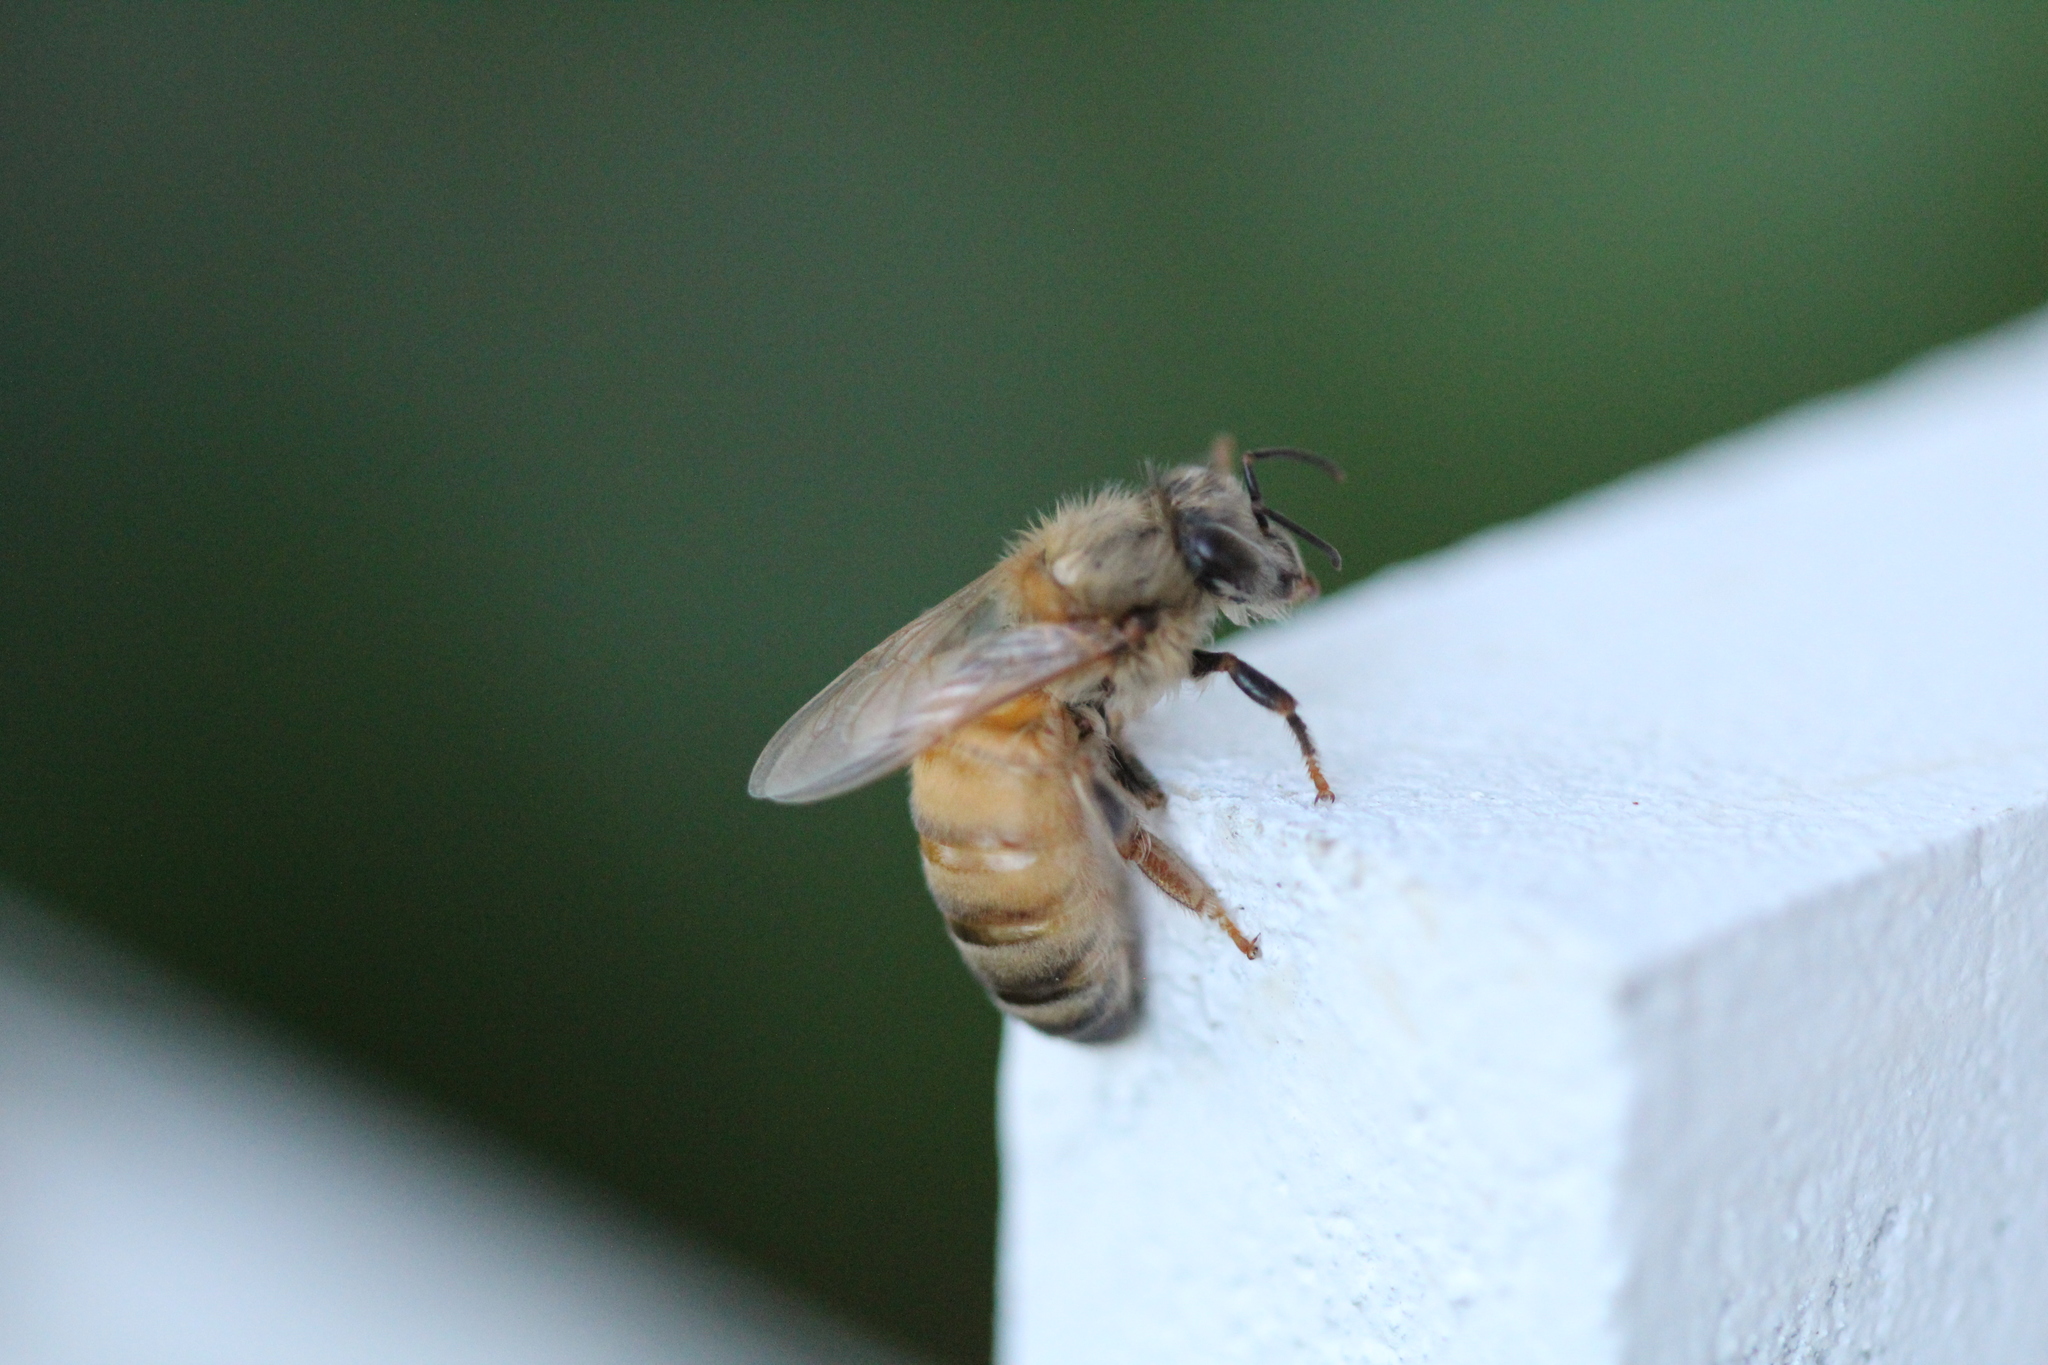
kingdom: Animalia
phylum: Arthropoda
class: Insecta
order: Hymenoptera
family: Apidae
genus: Apis
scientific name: Apis mellifera
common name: Honey bee
